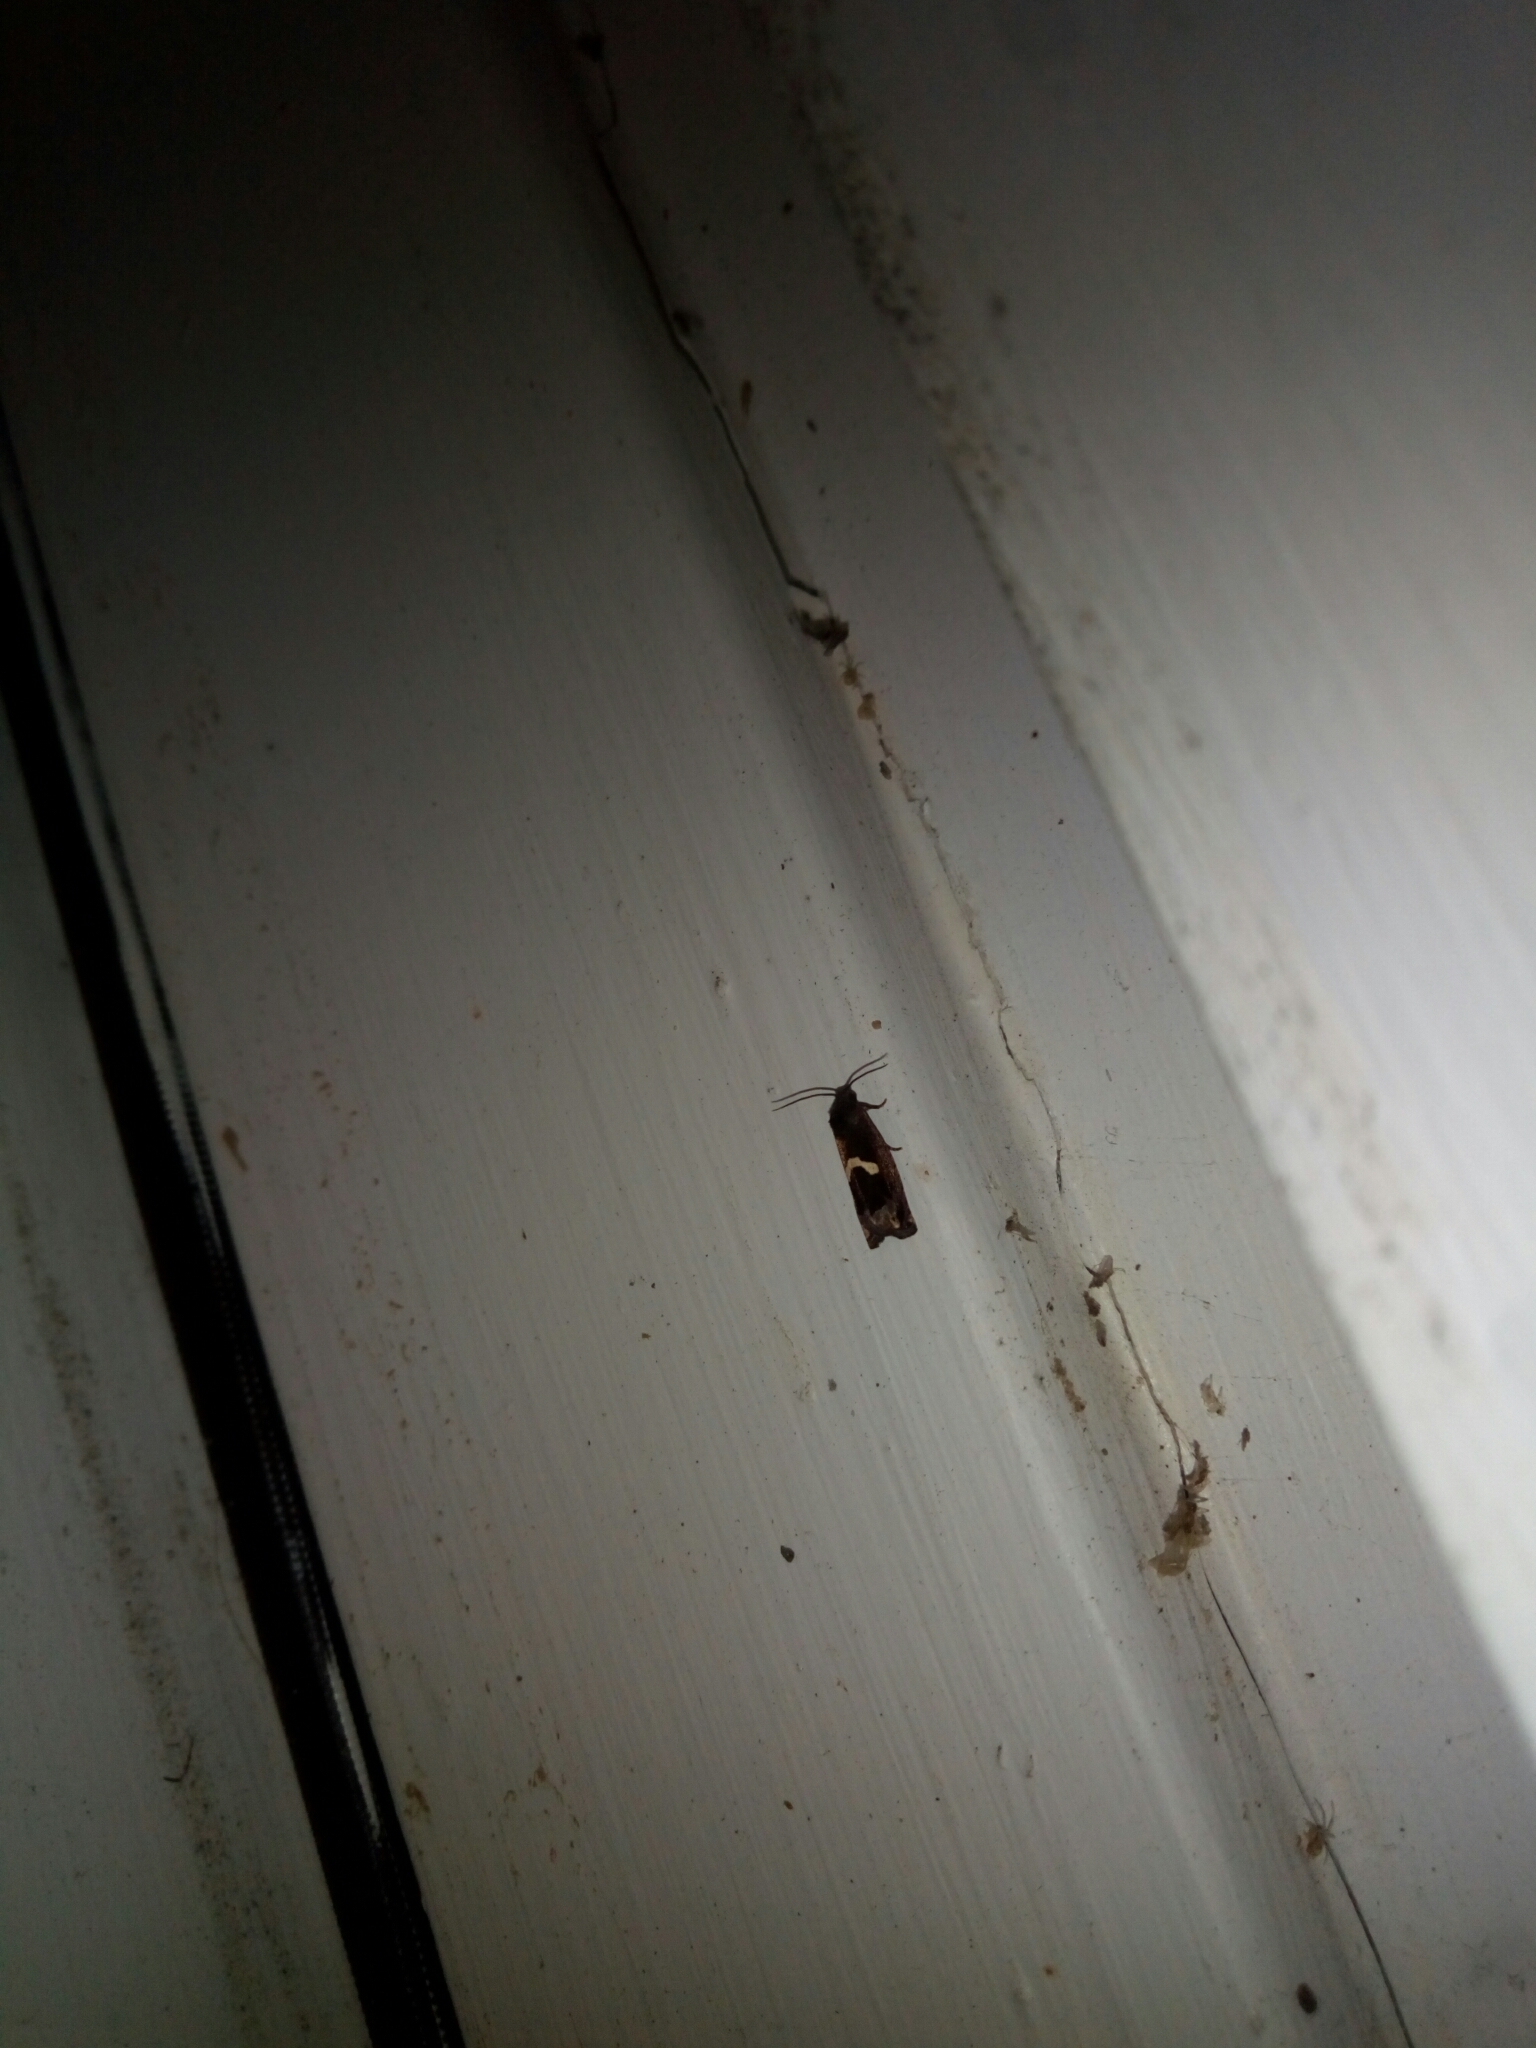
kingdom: Animalia
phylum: Arthropoda
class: Insecta
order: Lepidoptera
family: Tortricidae
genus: Epiblema
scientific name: Epiblema otiosana
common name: Bidens borer moth
